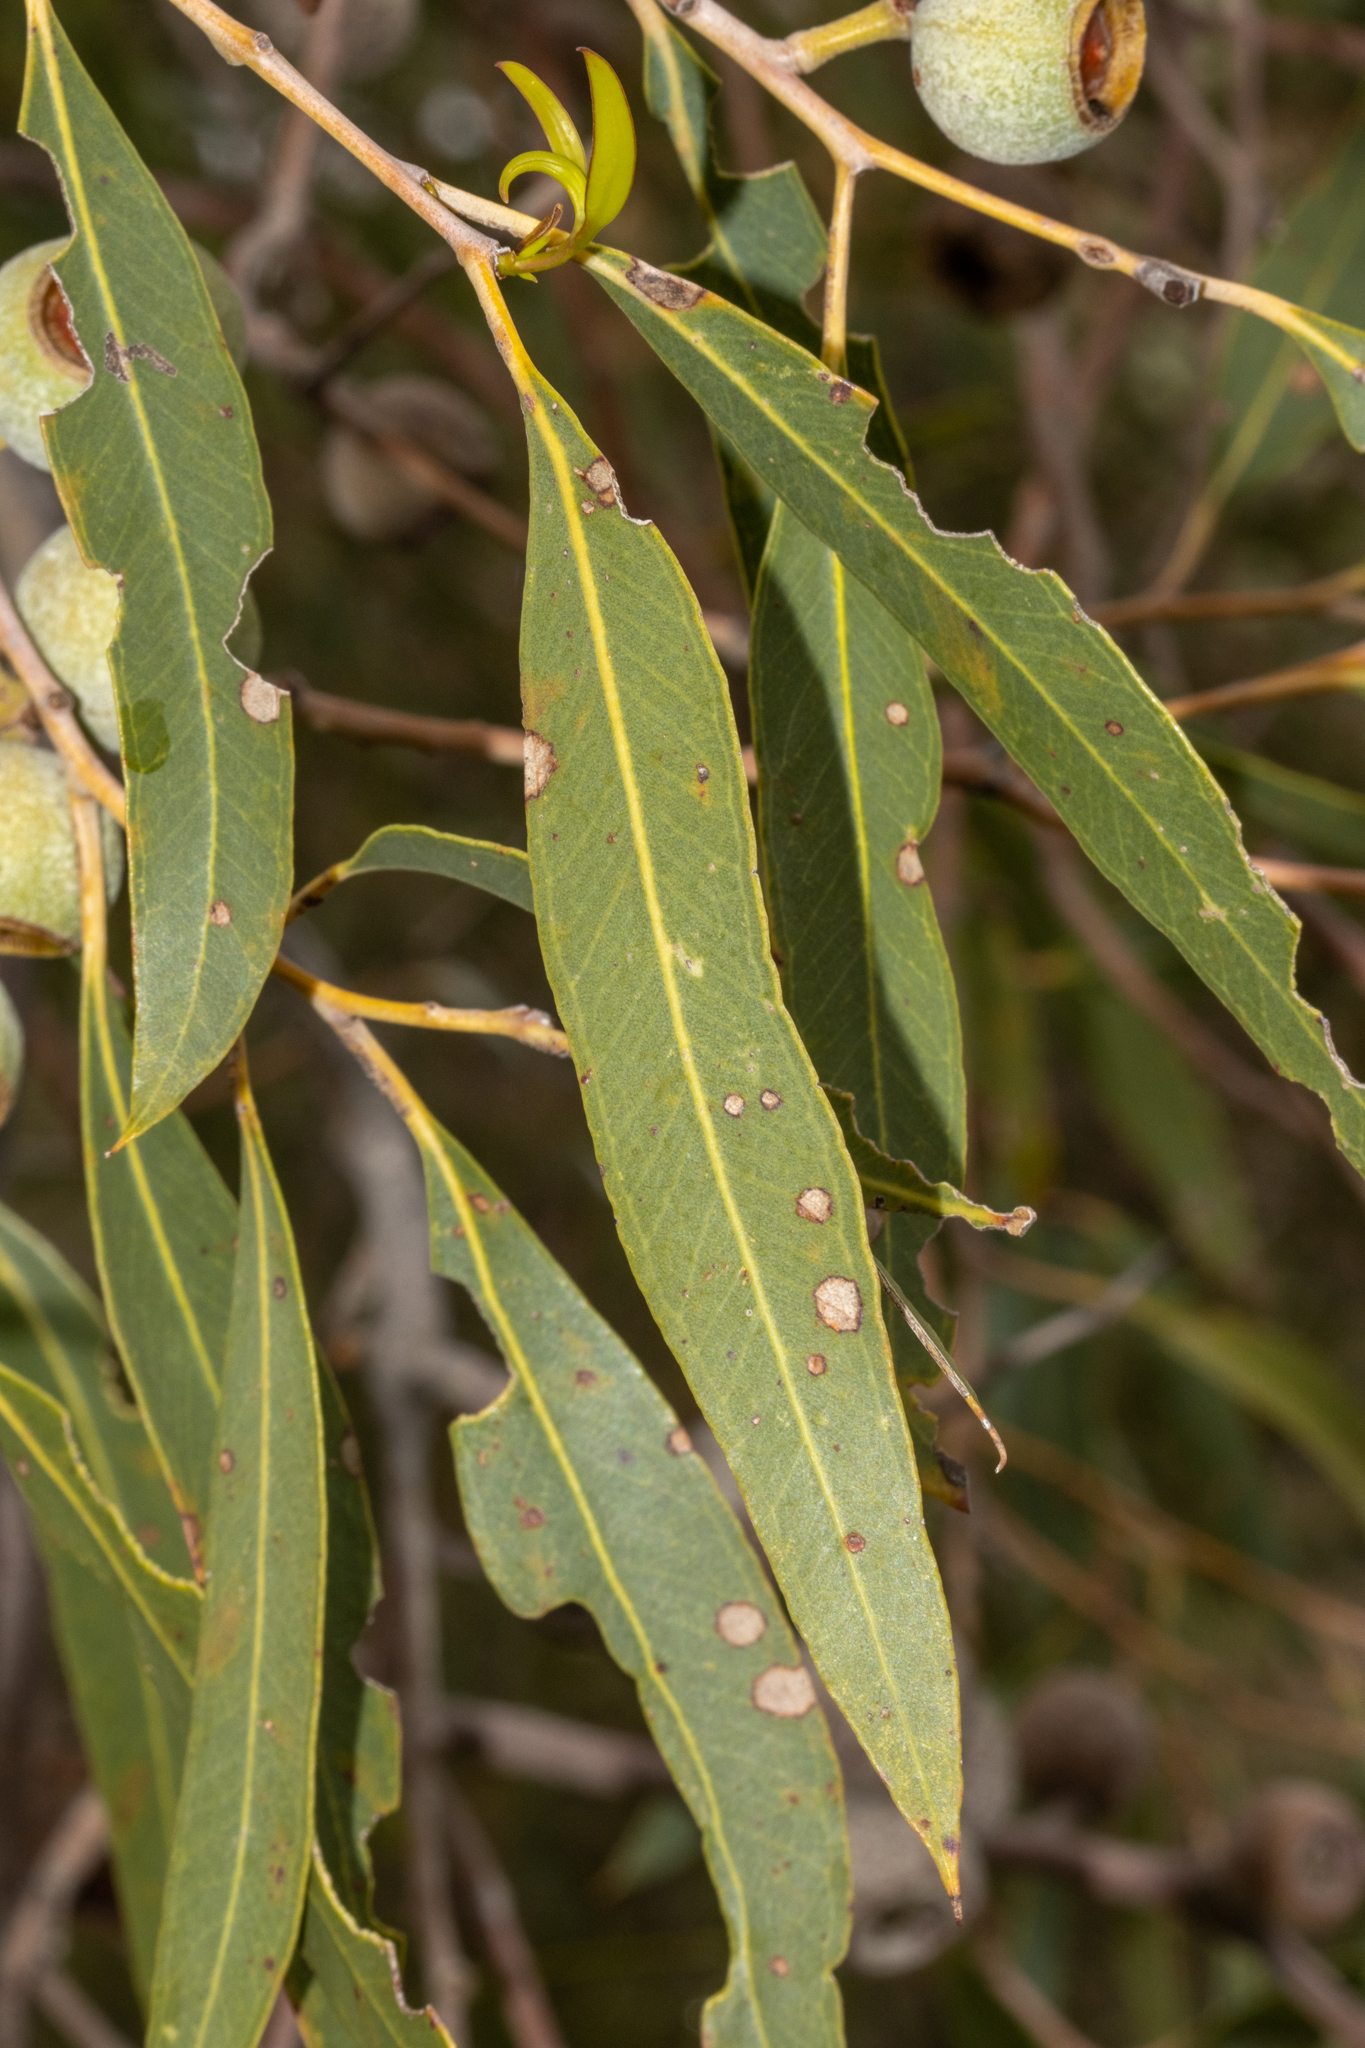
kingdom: Plantae
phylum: Tracheophyta
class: Magnoliopsida
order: Myrtales
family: Myrtaceae
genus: Eucalyptus
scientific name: Eucalyptus todtiana
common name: Coastal blackbutt
